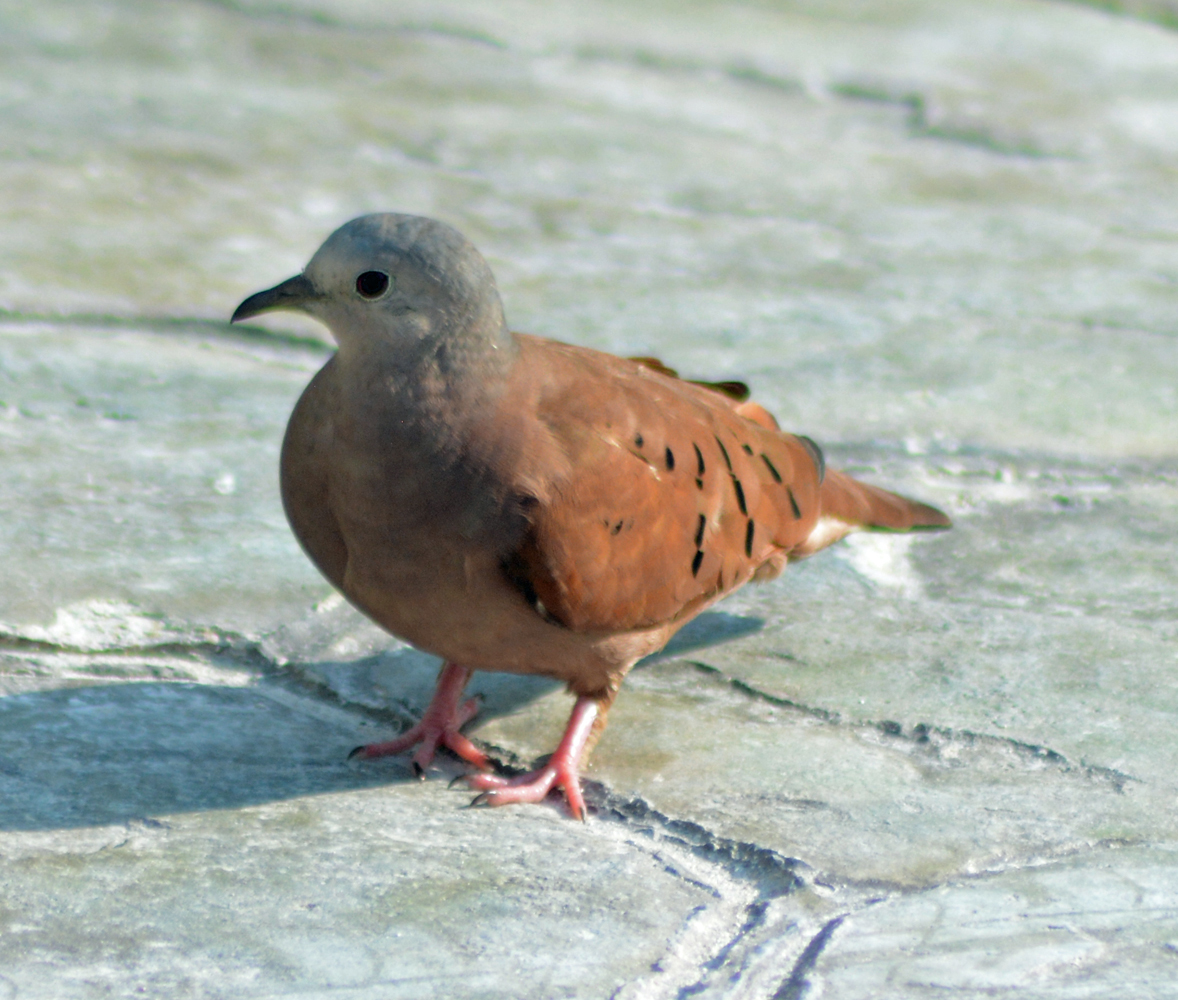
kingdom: Animalia
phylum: Chordata
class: Aves
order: Columbiformes
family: Columbidae
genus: Columbina
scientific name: Columbina talpacoti
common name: Ruddy ground dove
